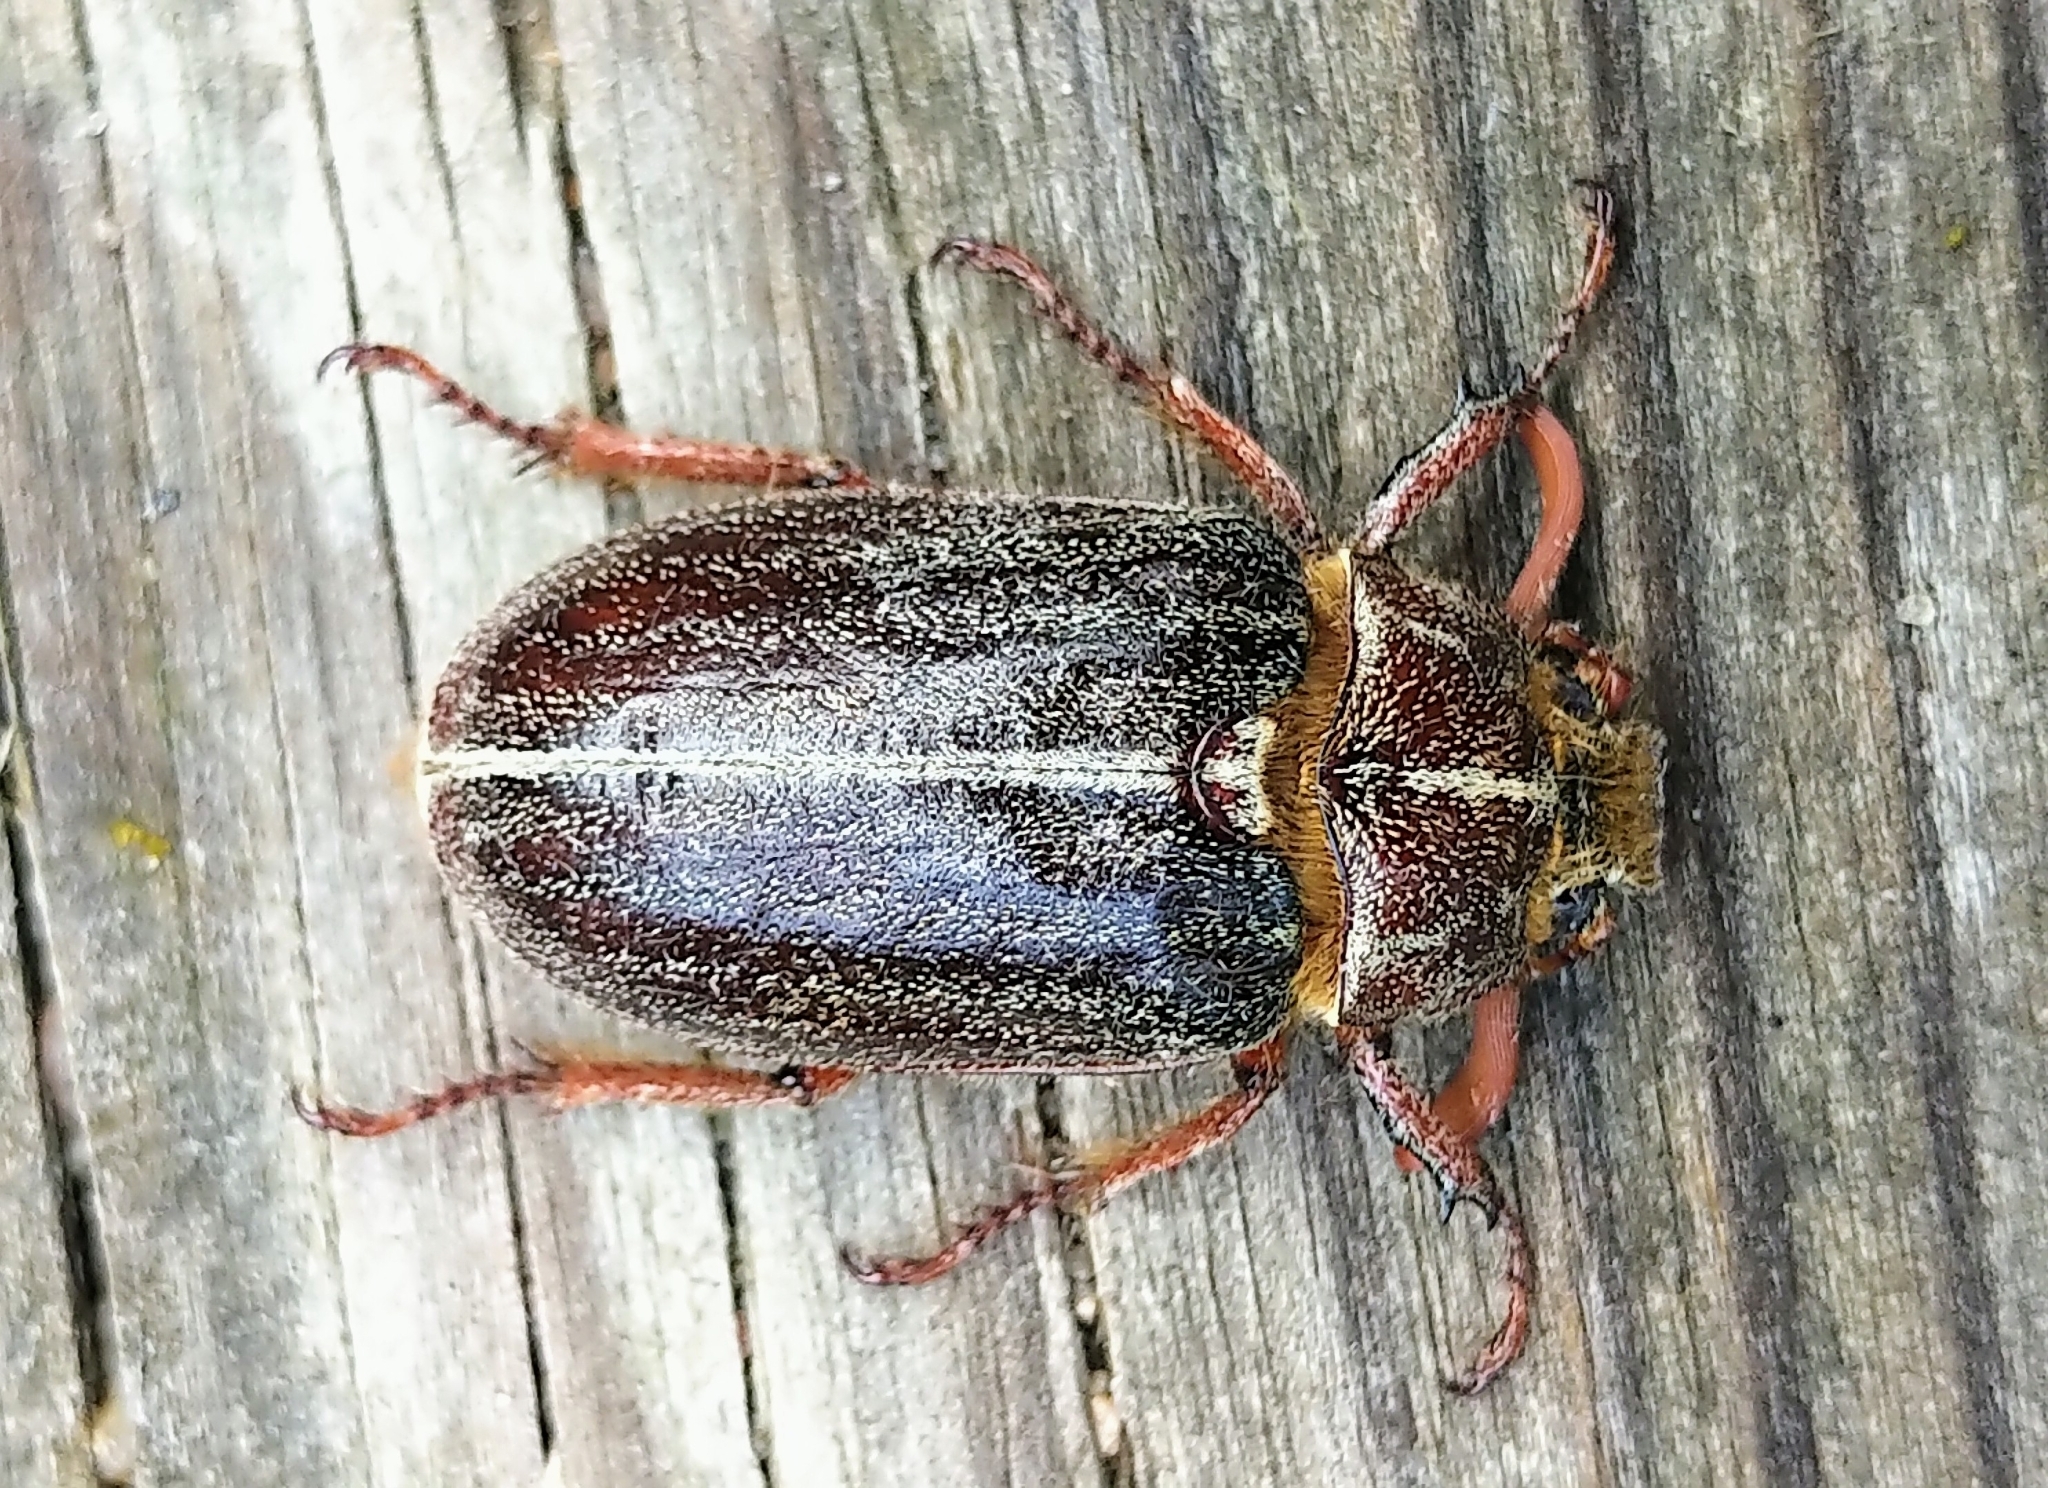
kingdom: Animalia
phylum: Arthropoda
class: Insecta
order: Coleoptera
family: Scarabaeidae
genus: Polyphylla
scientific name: Polyphylla hammondi
